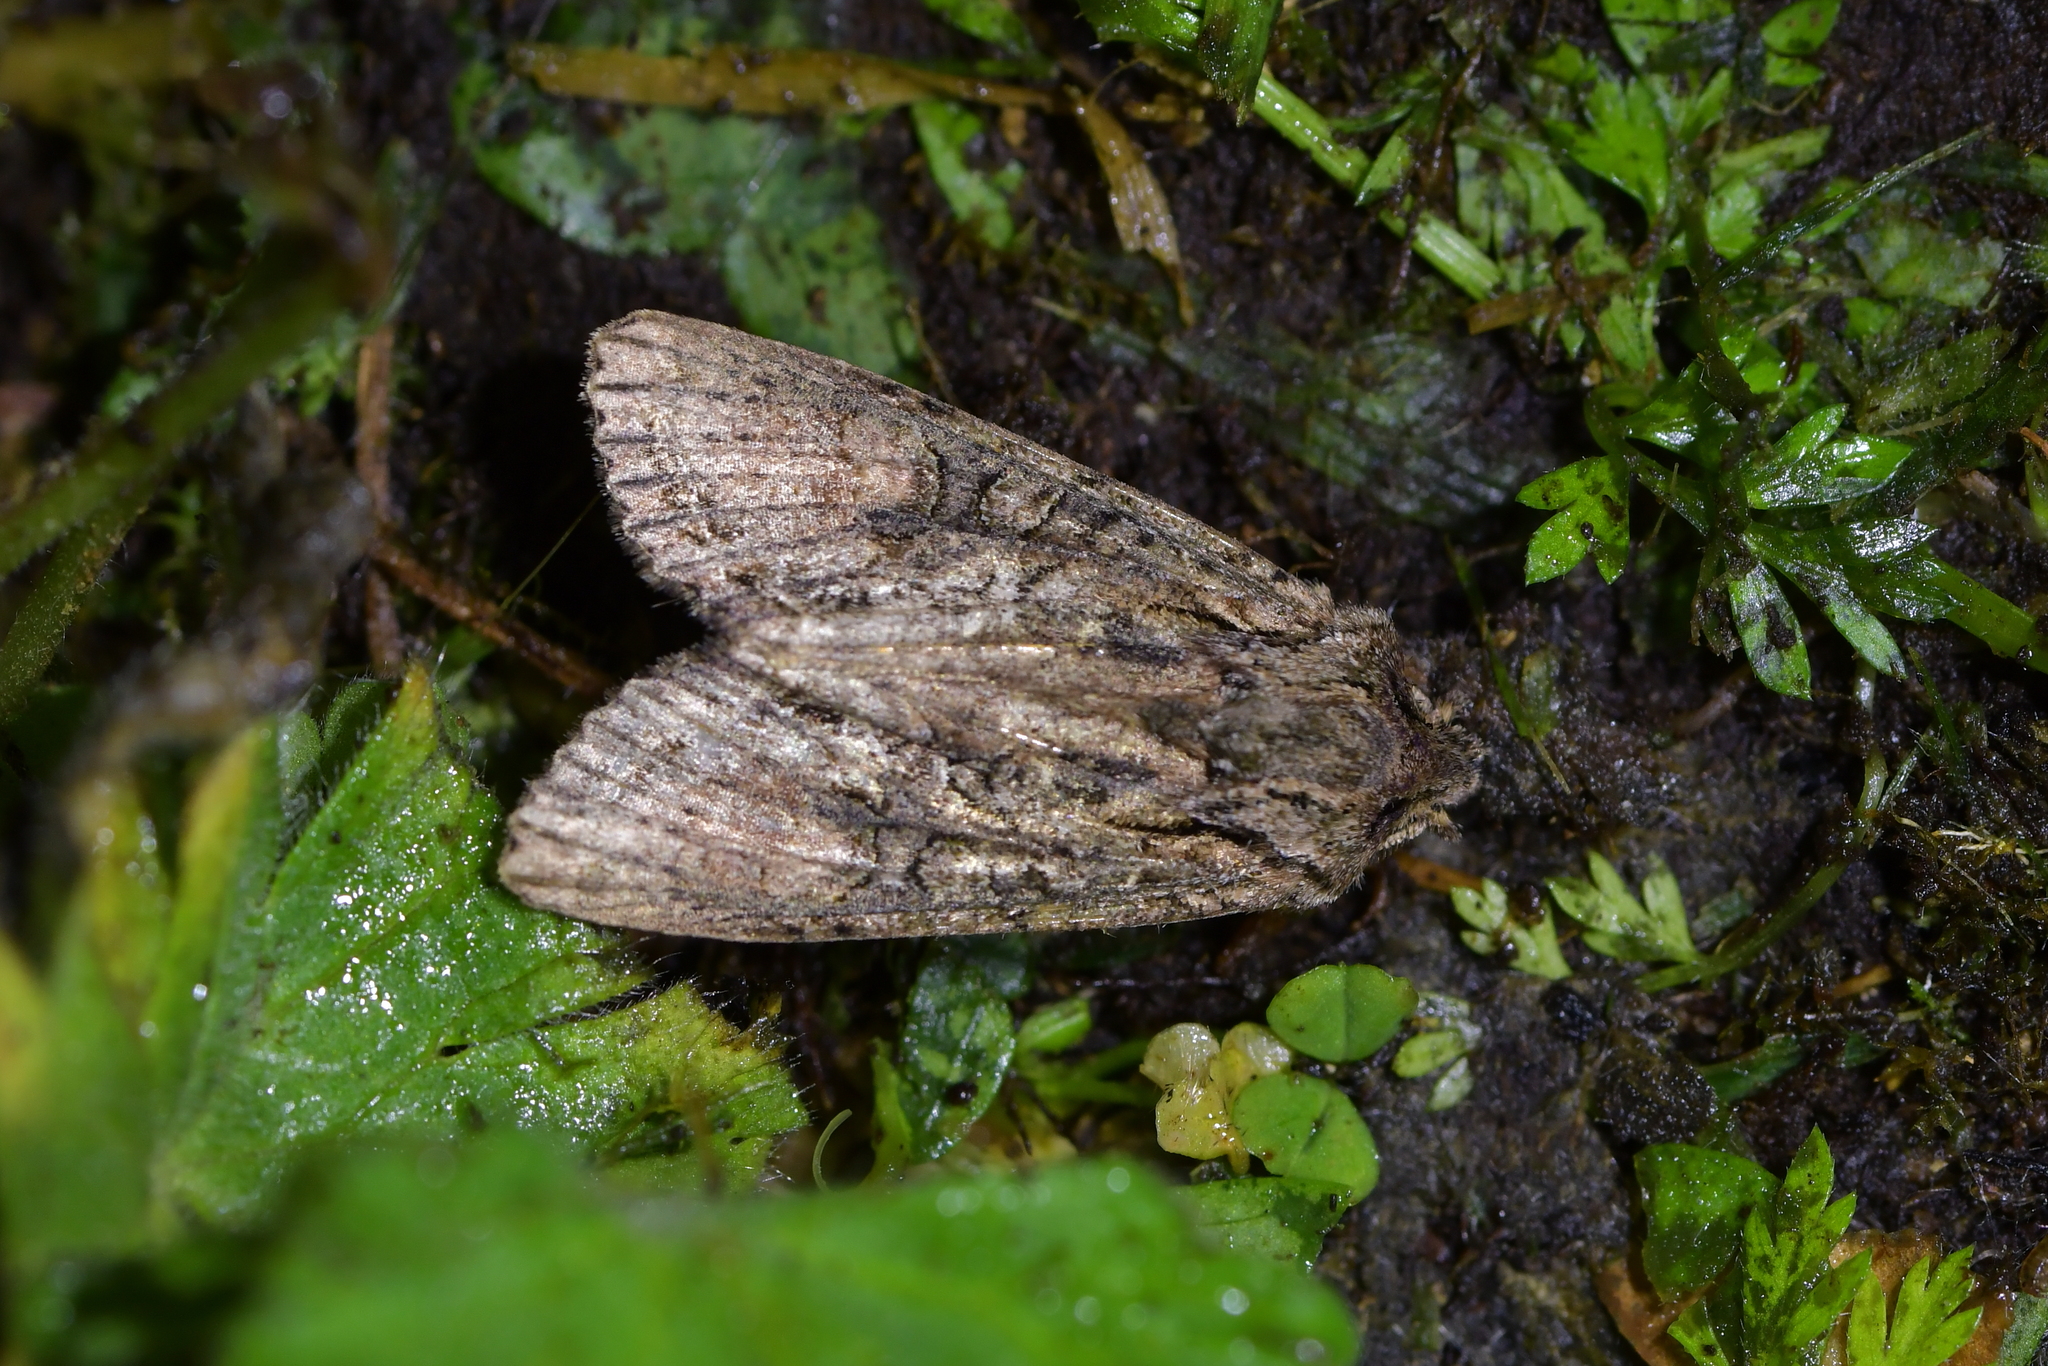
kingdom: Animalia
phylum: Arthropoda
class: Insecta
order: Lepidoptera
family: Noctuidae
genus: Ichneutica
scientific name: Ichneutica mutans
